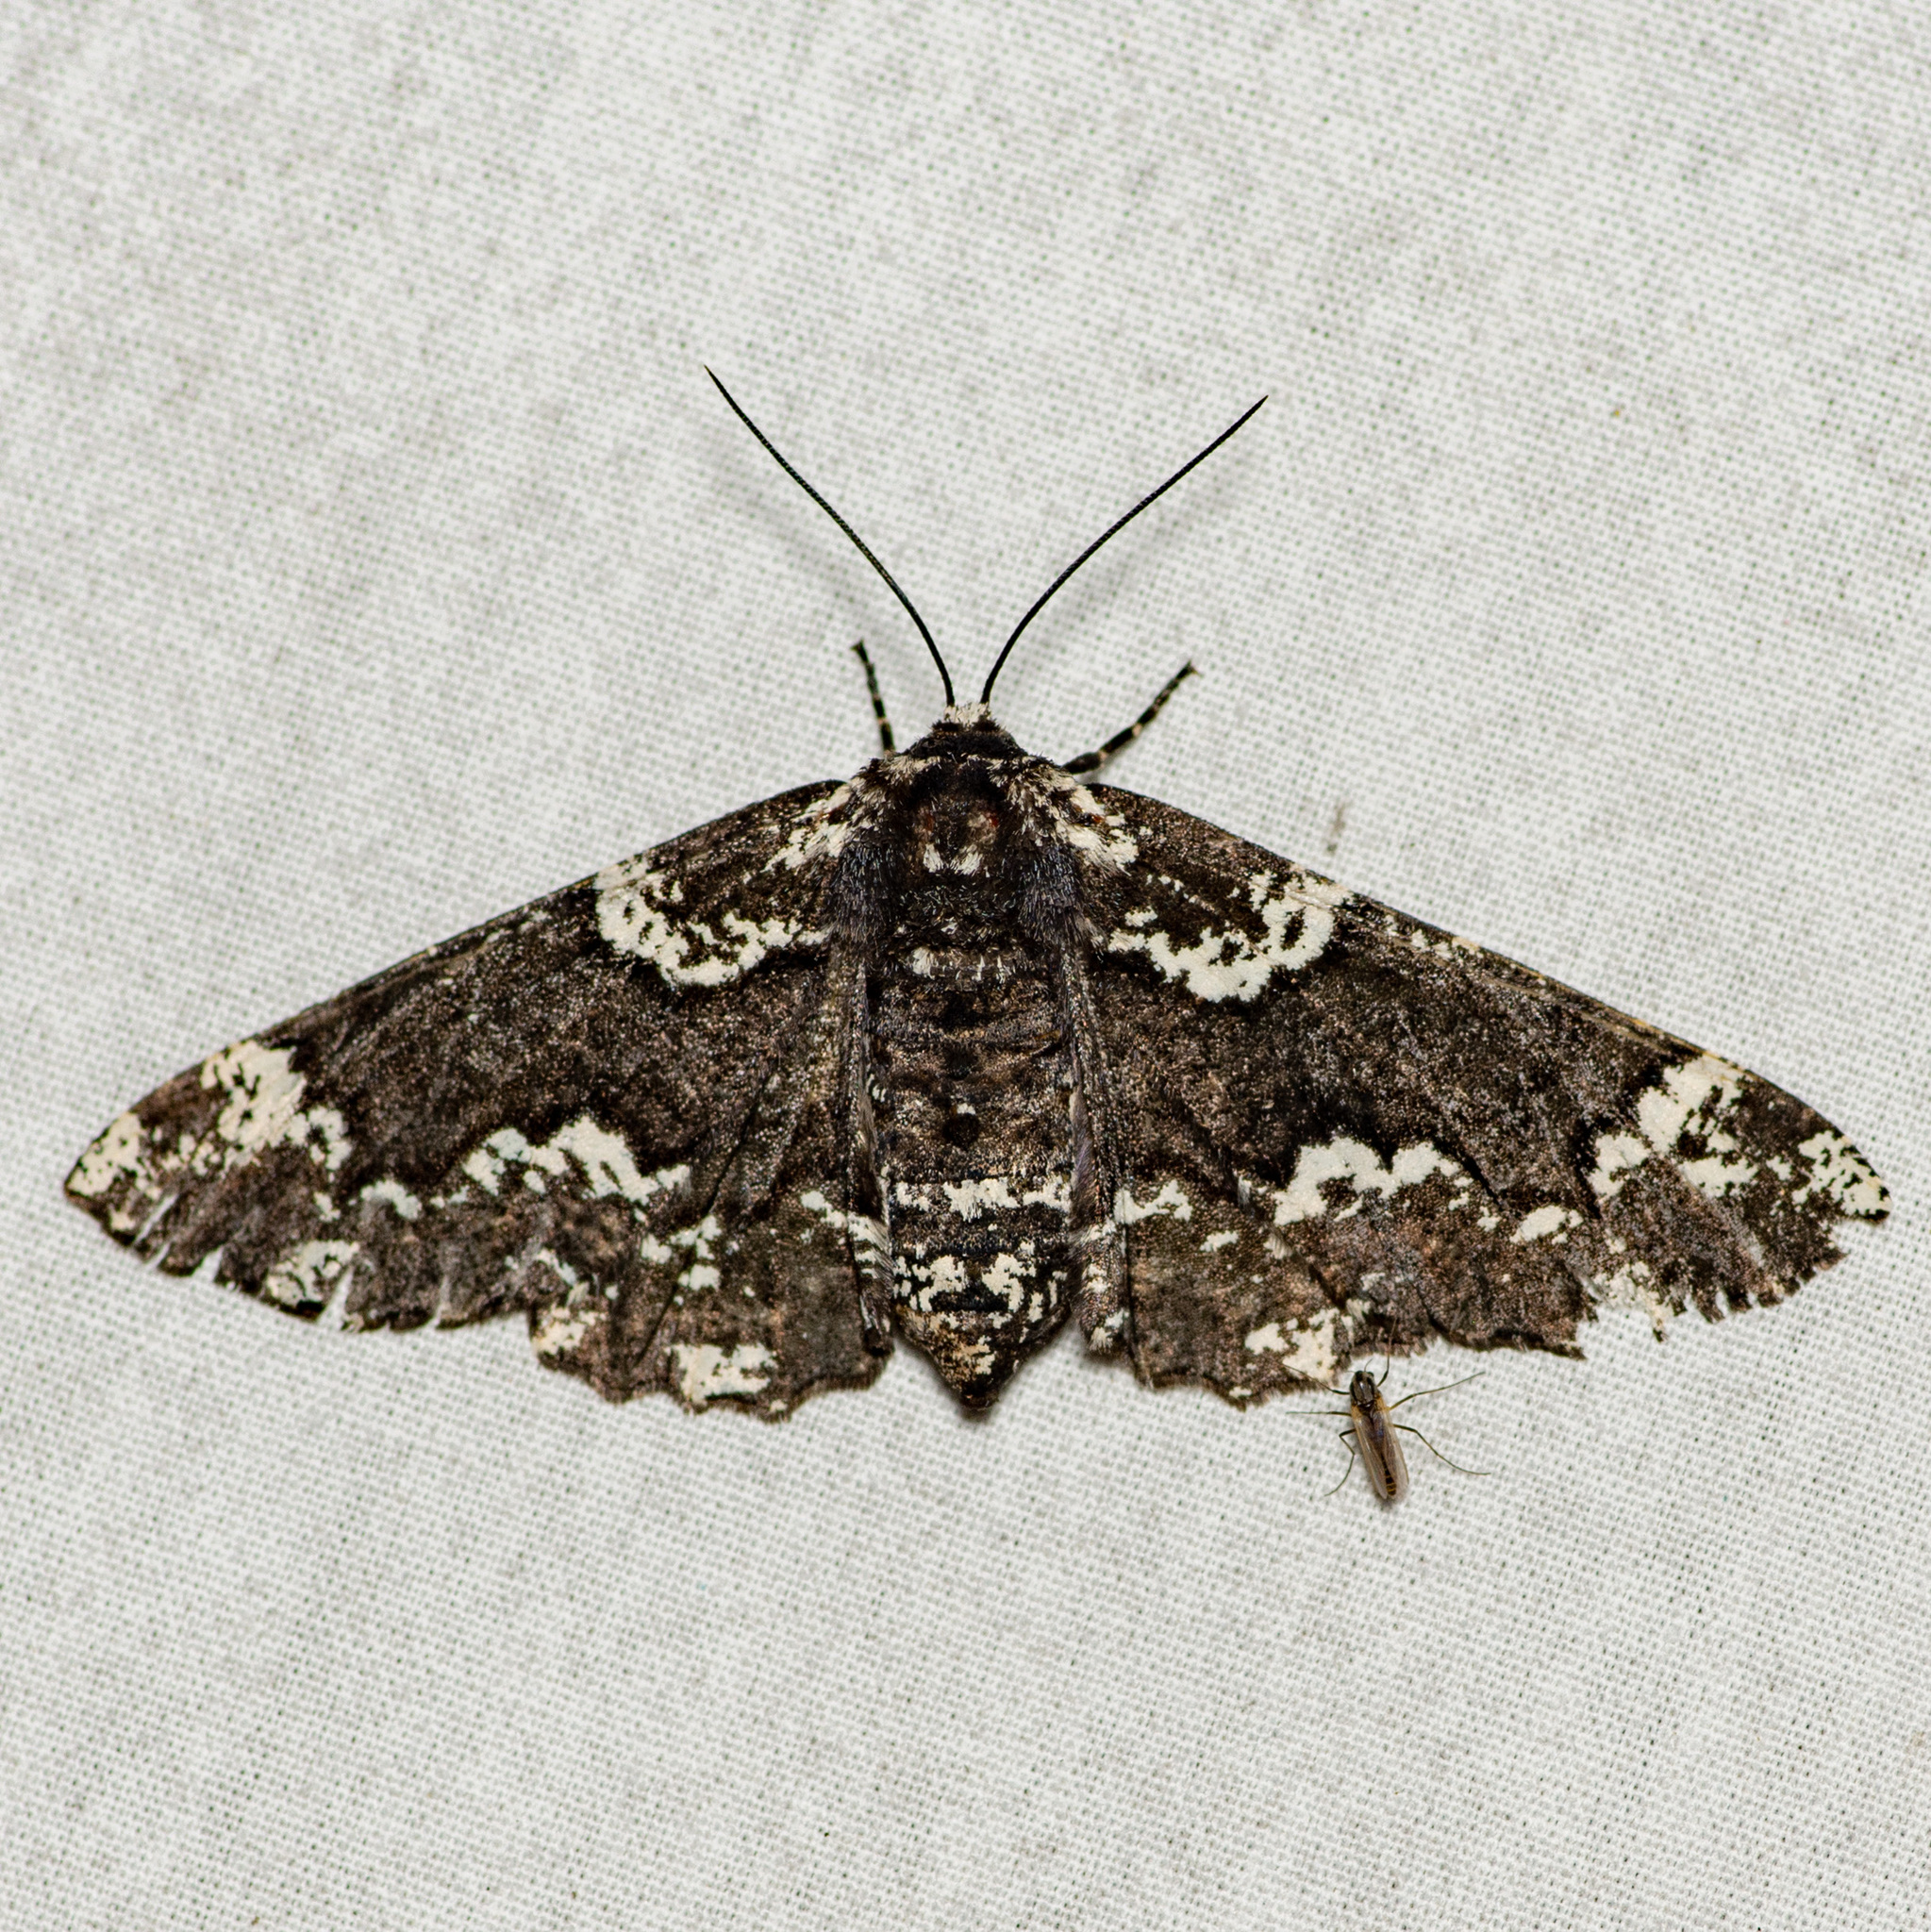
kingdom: Animalia
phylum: Arthropoda
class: Insecta
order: Lepidoptera
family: Geometridae
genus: Phaeoura
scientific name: Phaeoura quernaria
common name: Oak beauty
